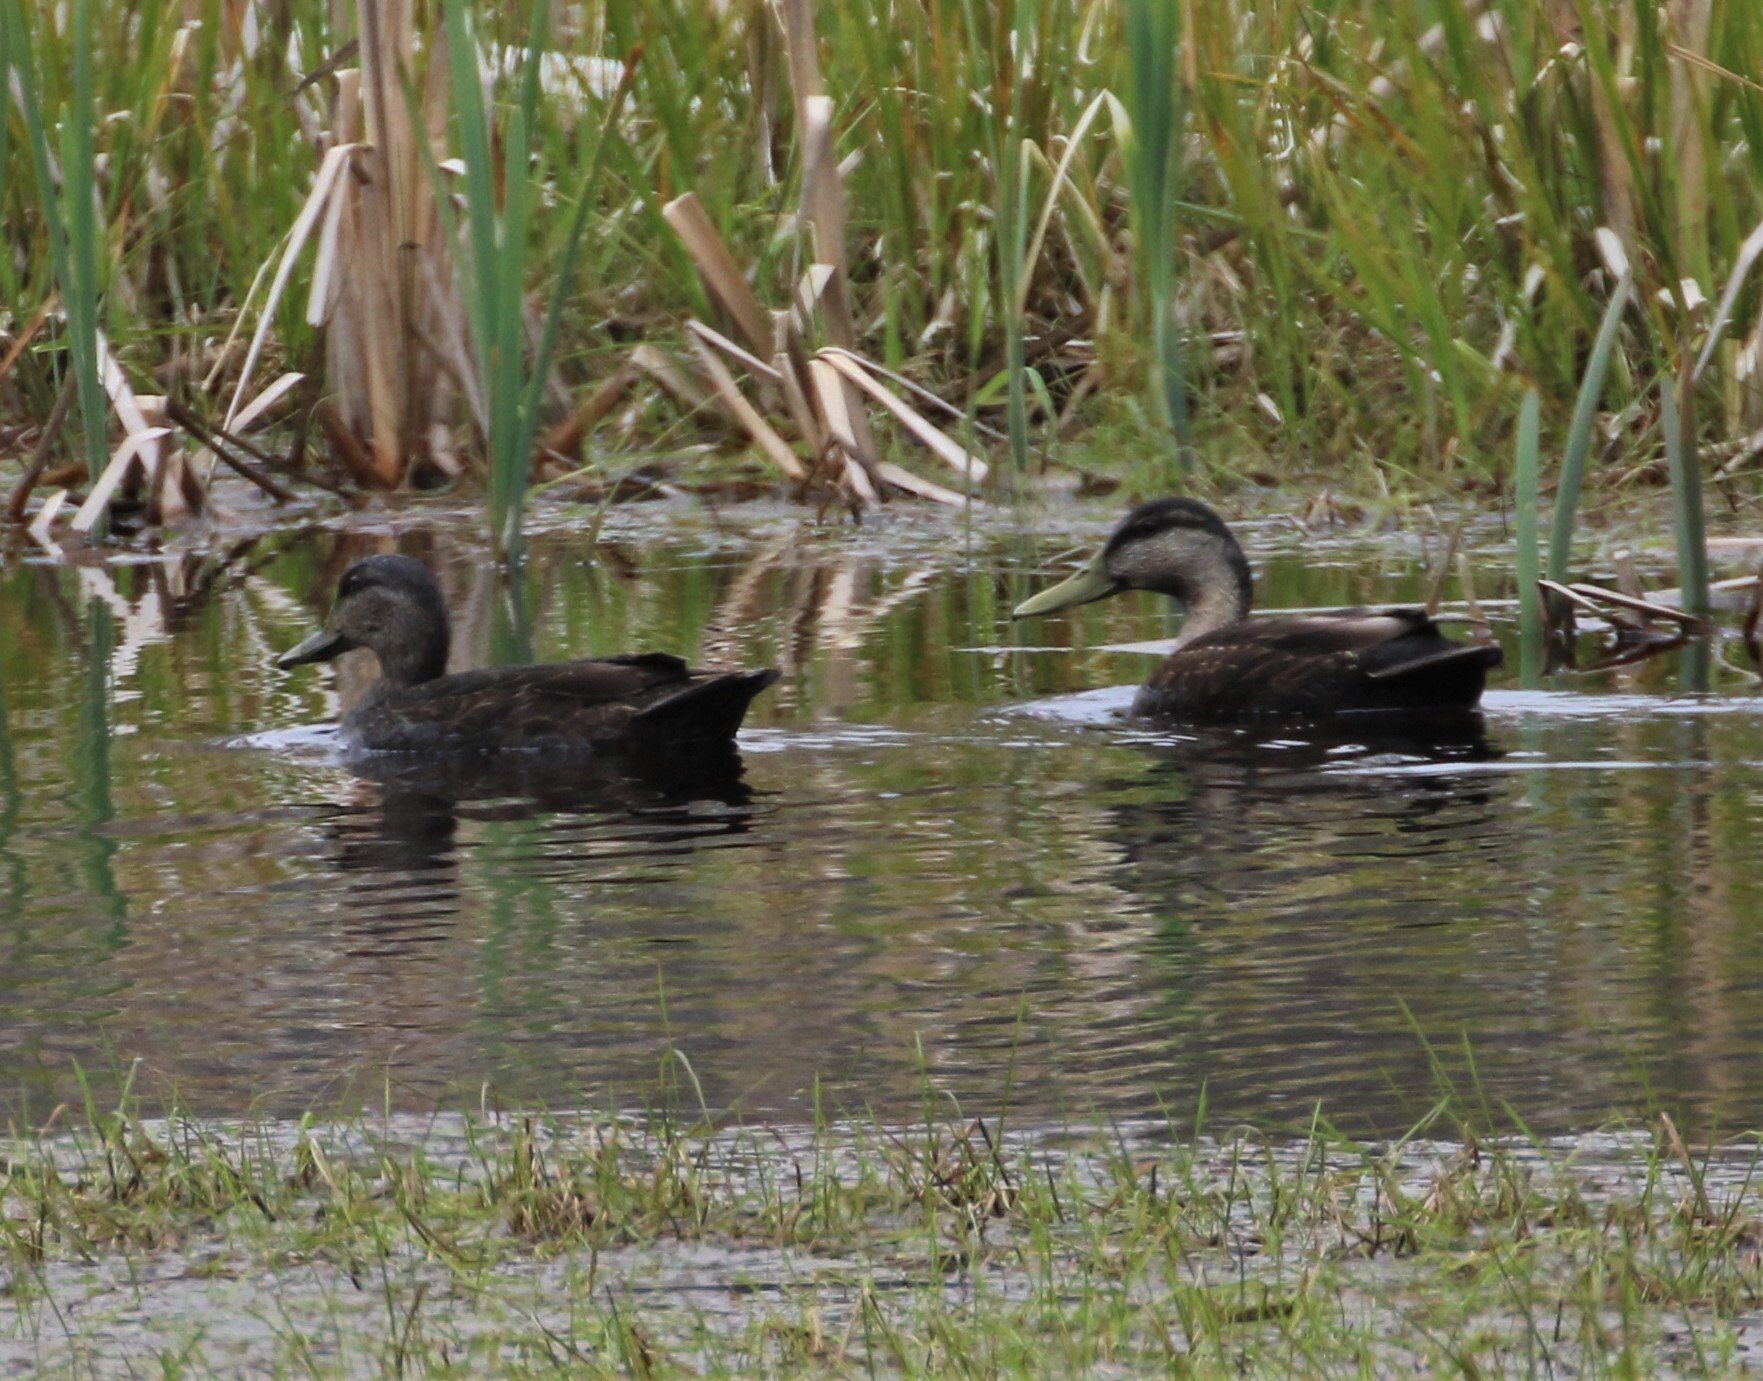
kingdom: Animalia
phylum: Chordata
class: Aves
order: Anseriformes
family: Anatidae
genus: Anas
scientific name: Anas rubripes
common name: American black duck
